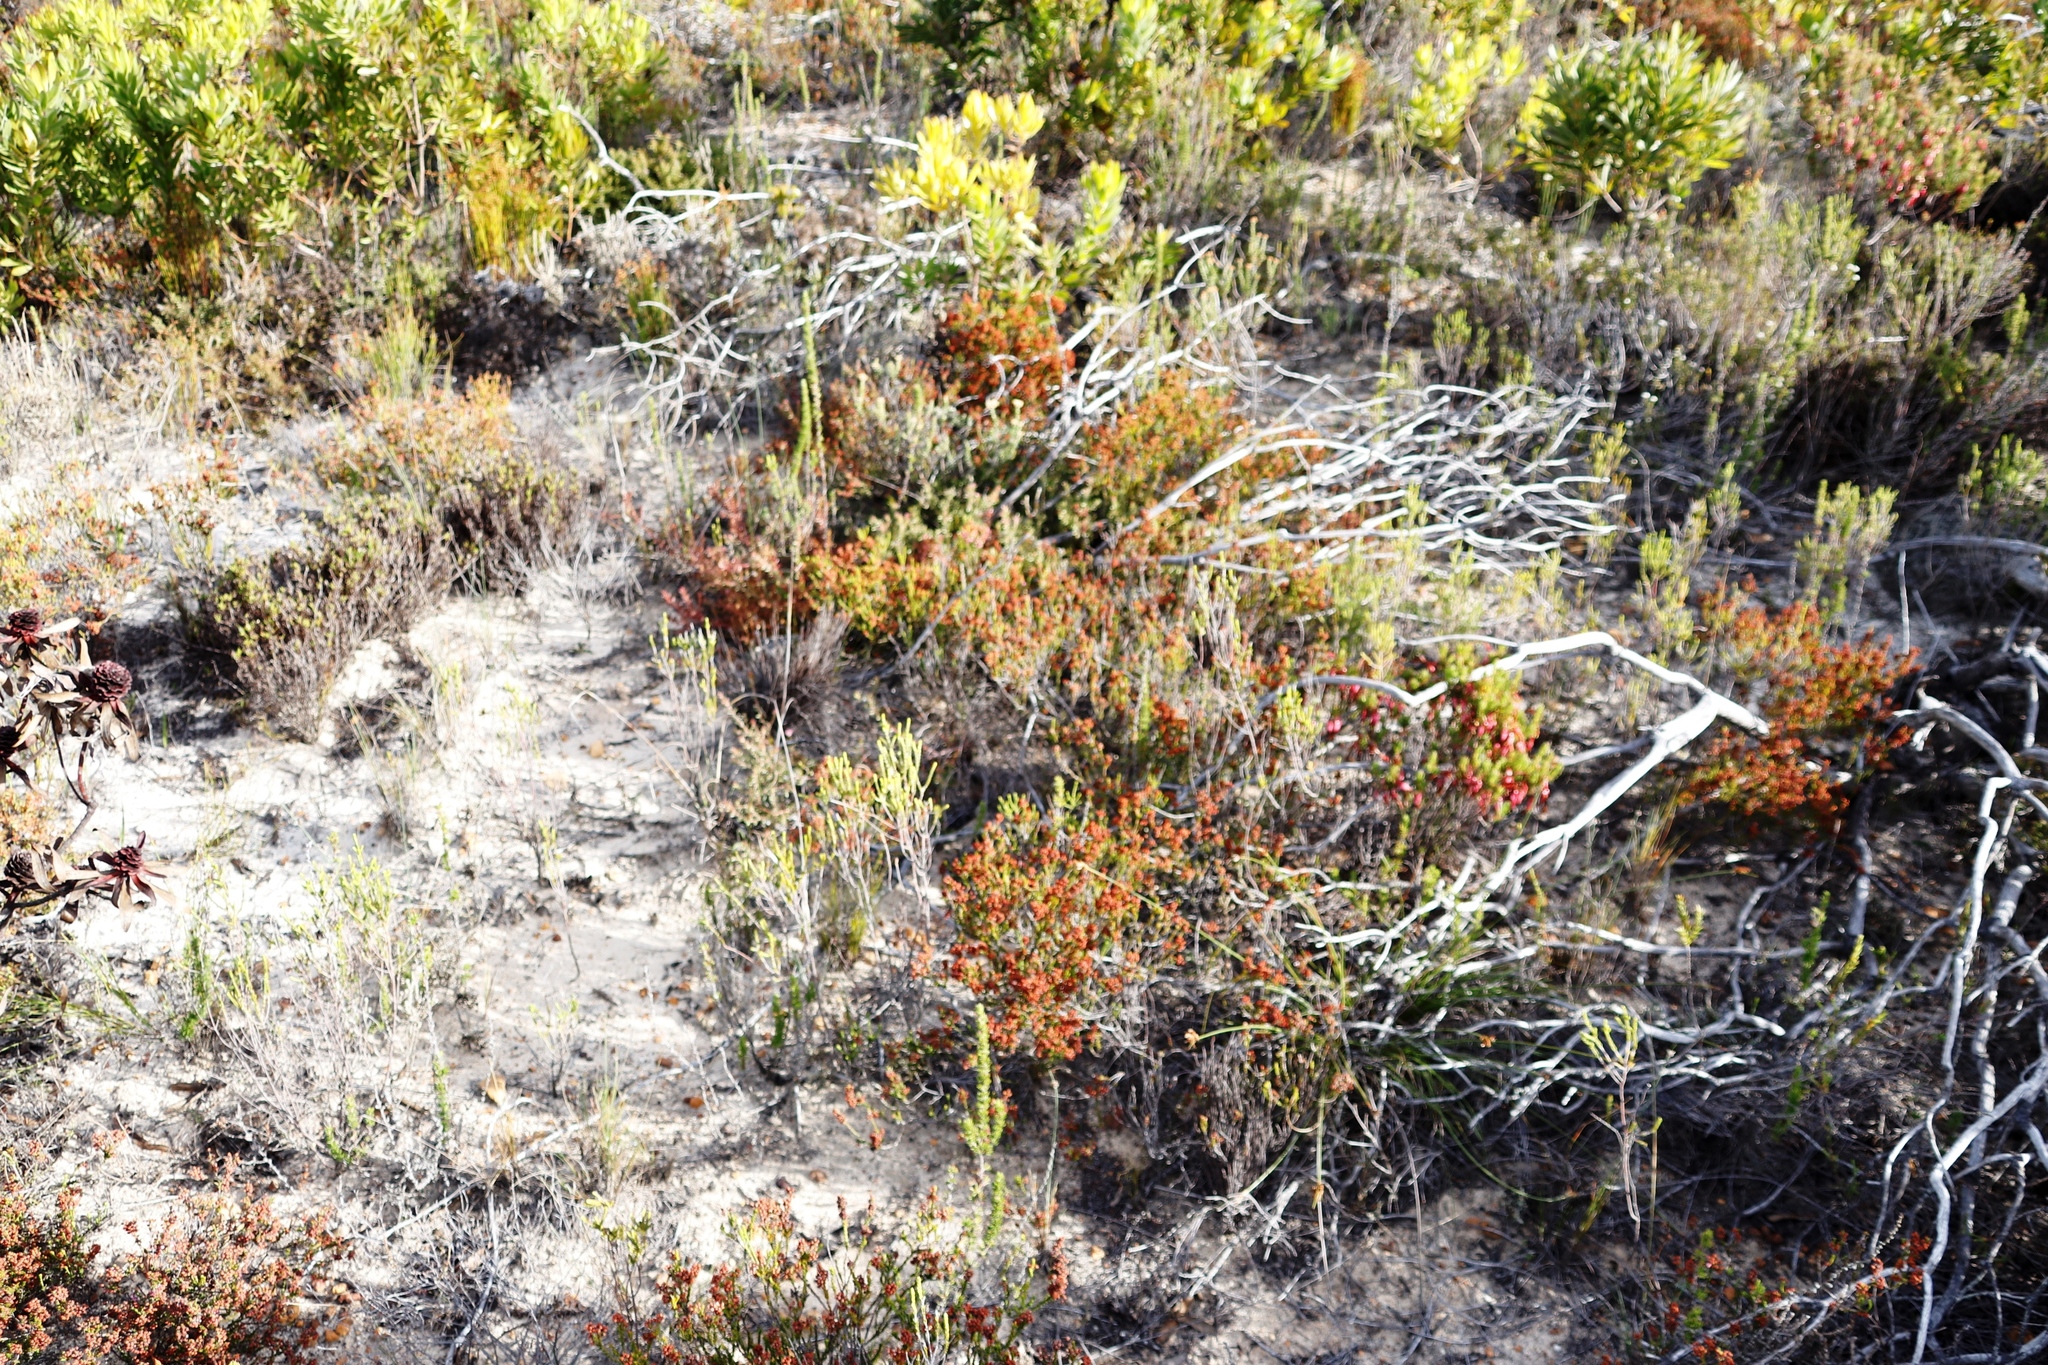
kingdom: Plantae
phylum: Tracheophyta
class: Magnoliopsida
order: Ericales
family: Ericaceae
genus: Erica
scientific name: Erica pulchella
